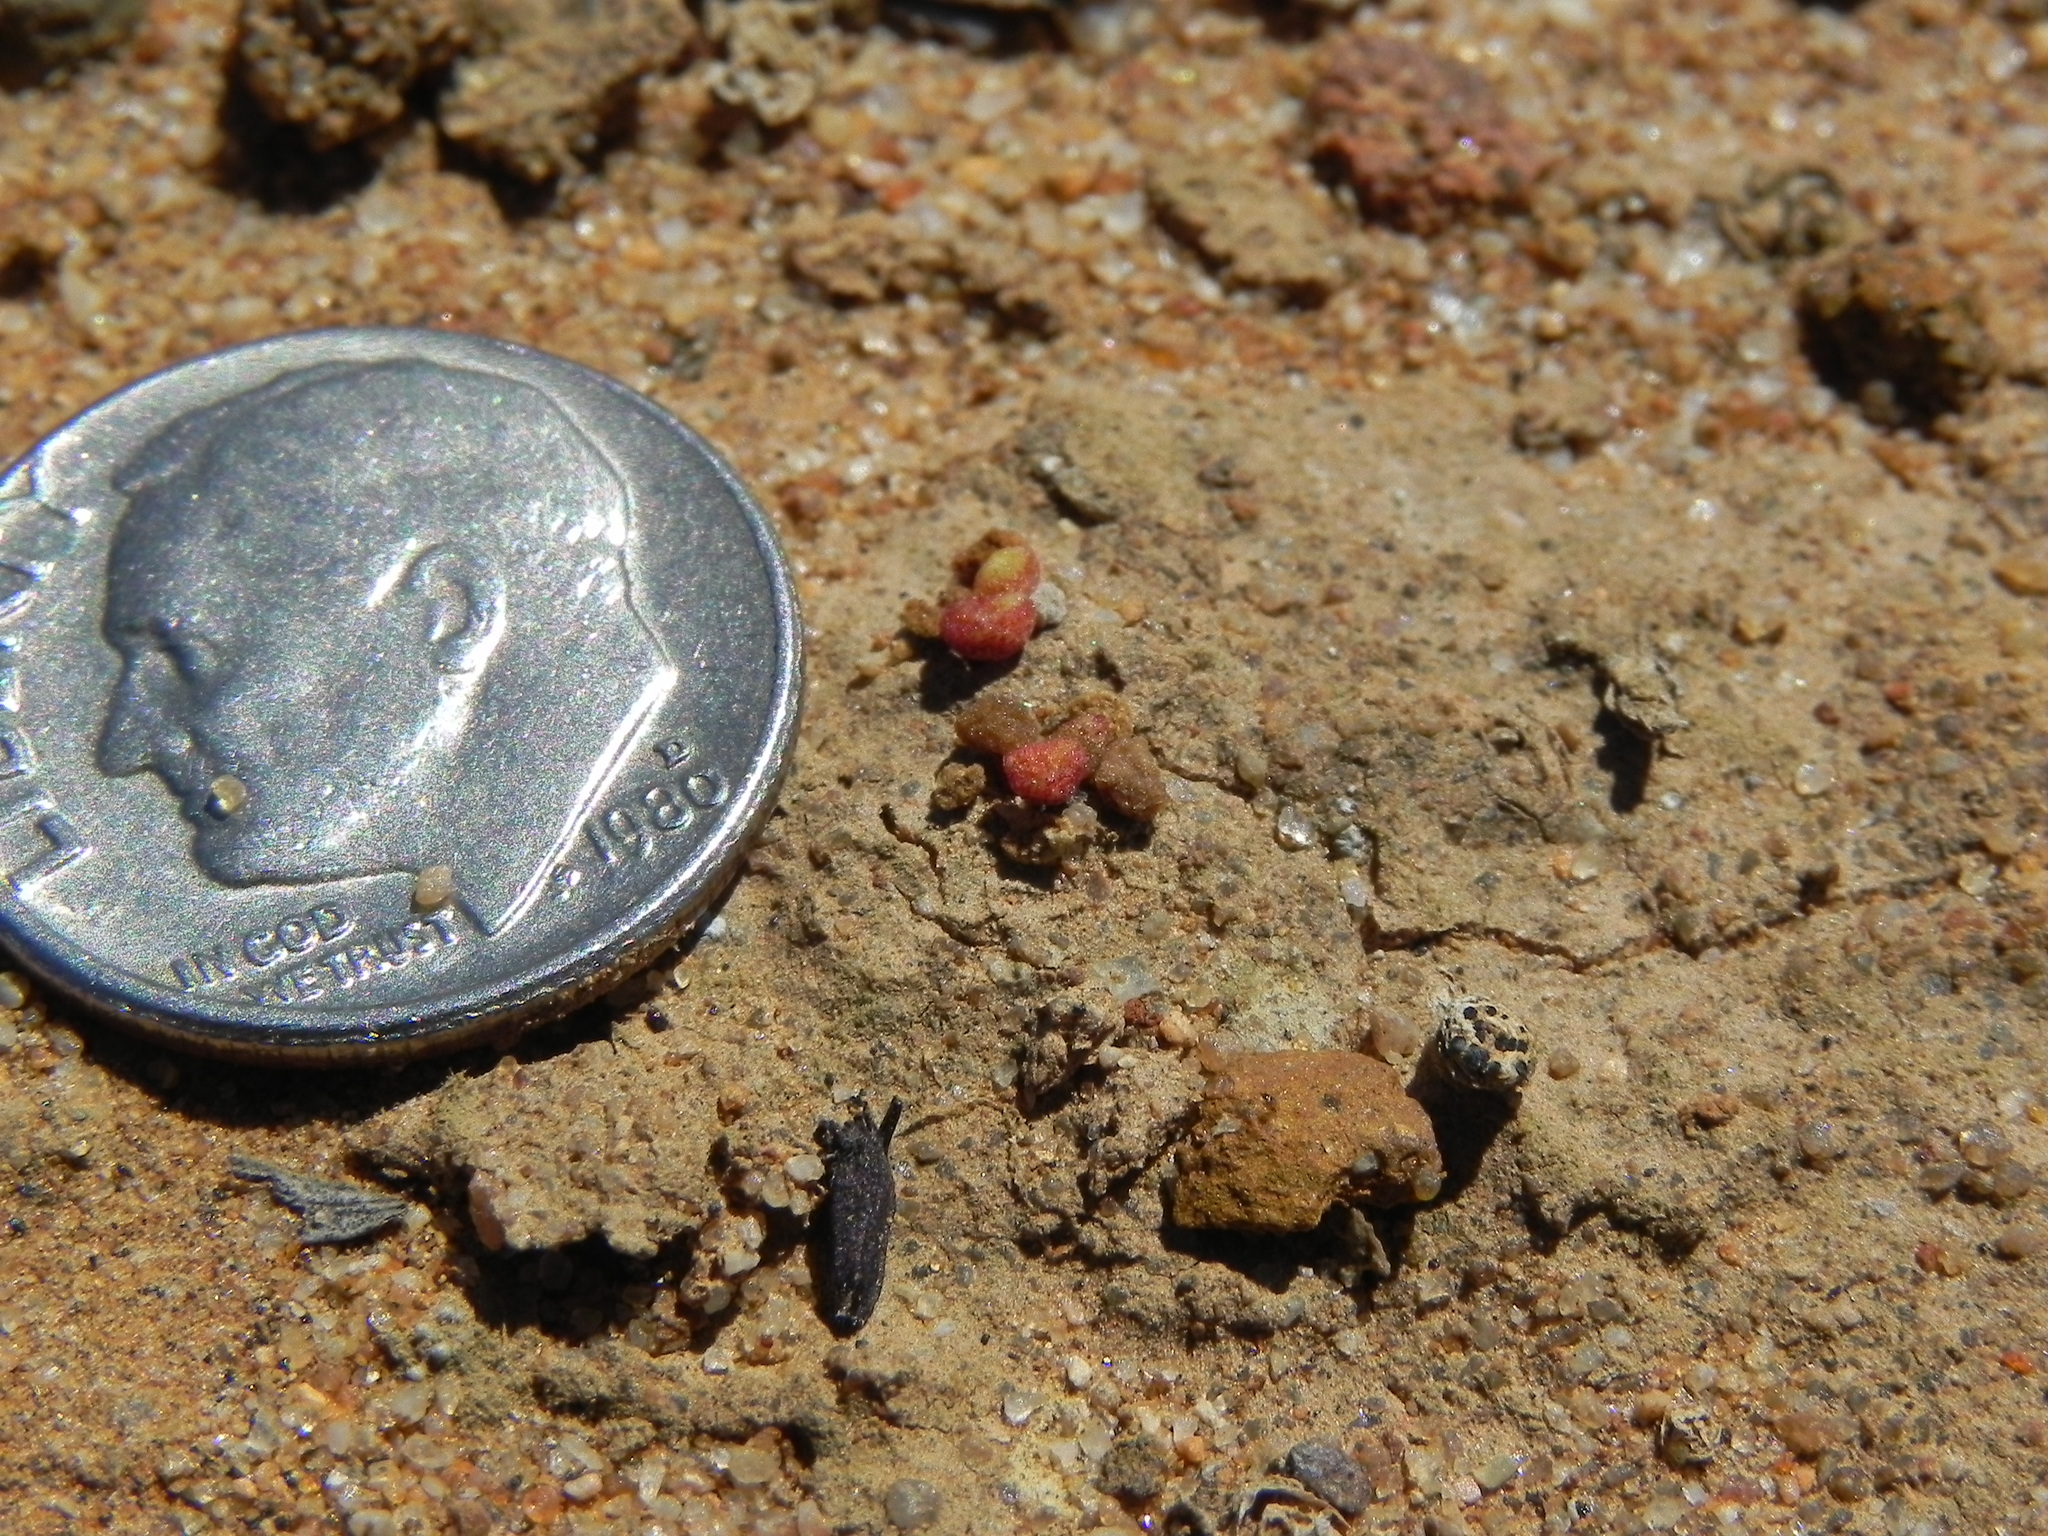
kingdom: Plantae
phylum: Tracheophyta
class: Magnoliopsida
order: Saxifragales
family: Crassulaceae
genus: Dudleya
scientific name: Dudleya blochmaniae
